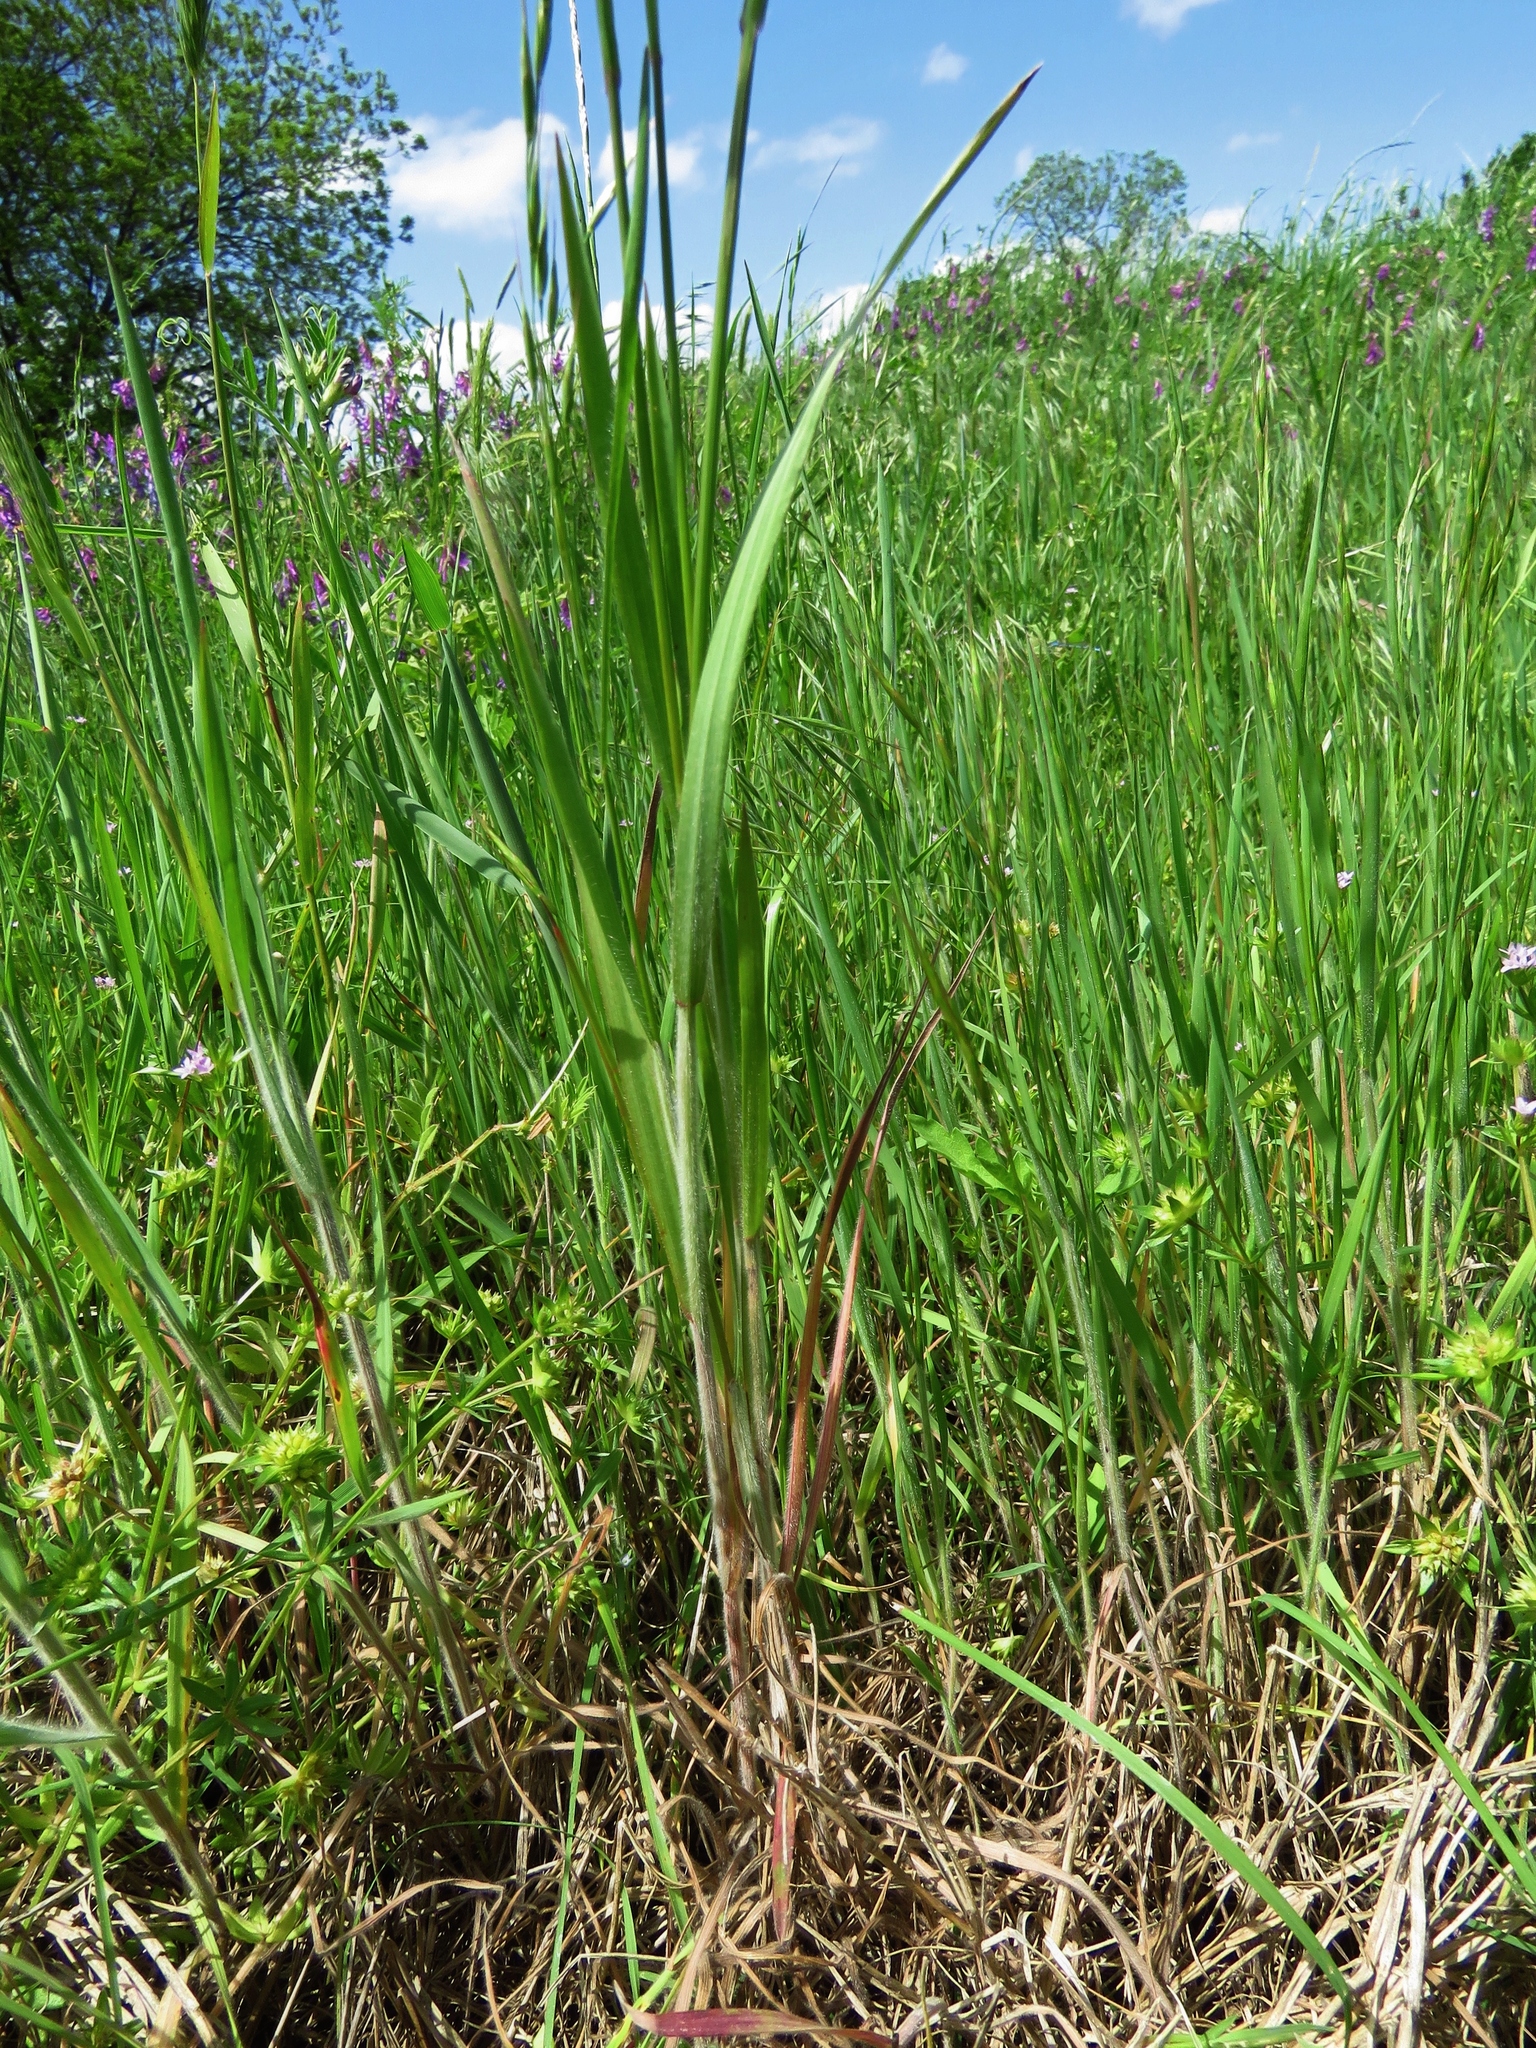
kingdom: Plantae
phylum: Tracheophyta
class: Liliopsida
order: Poales
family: Poaceae
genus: Bromus
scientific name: Bromus japonicus
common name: Japanese brome
